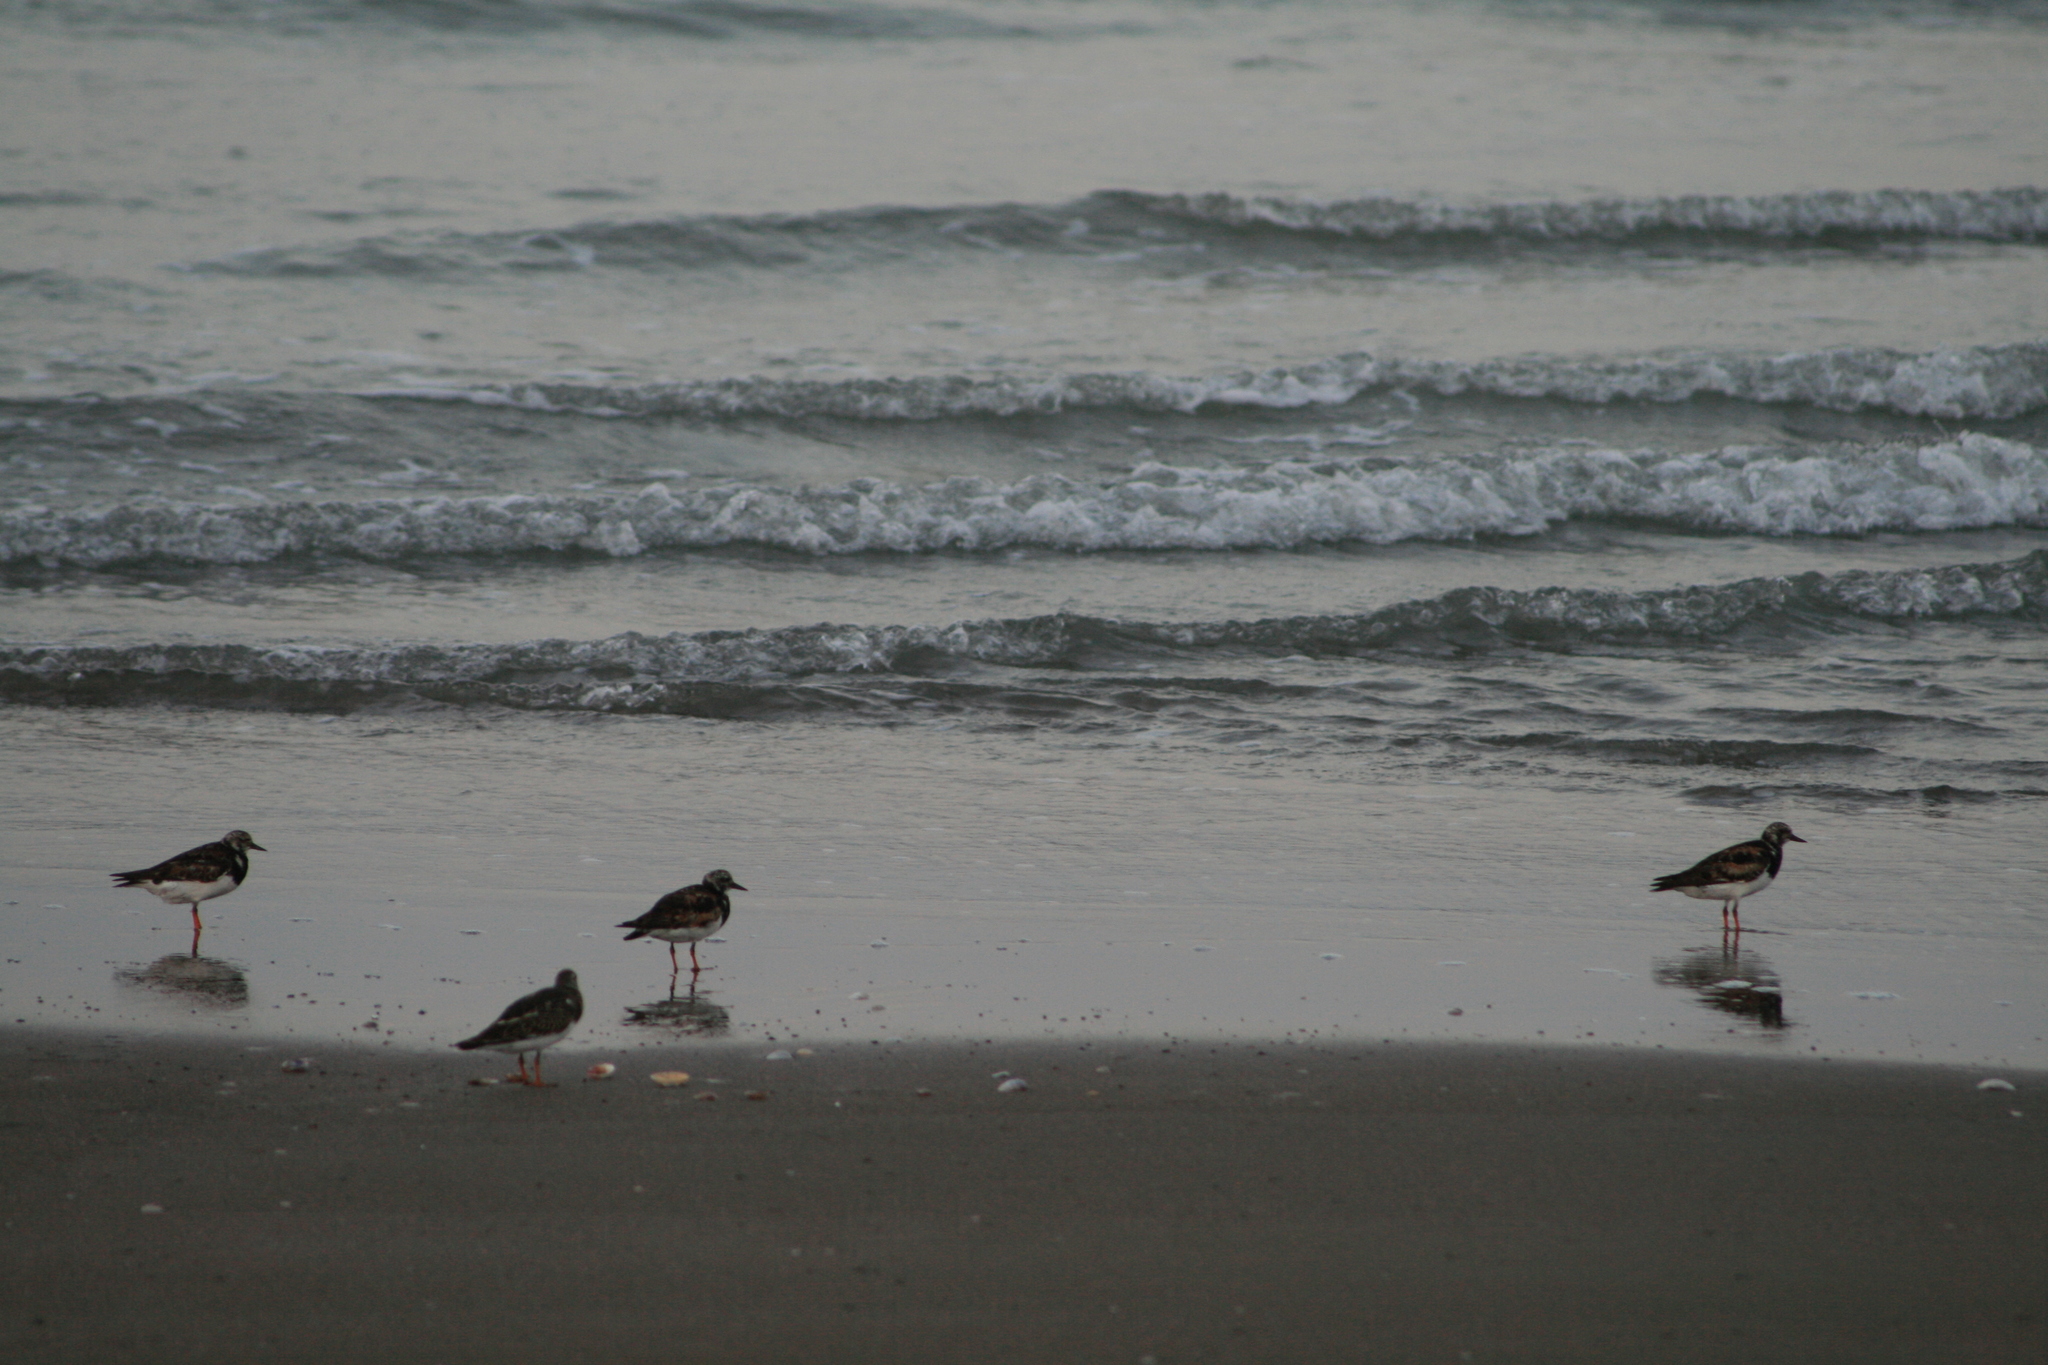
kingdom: Animalia
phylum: Chordata
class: Aves
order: Charadriiformes
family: Scolopacidae
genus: Arenaria
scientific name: Arenaria interpres
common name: Ruddy turnstone
